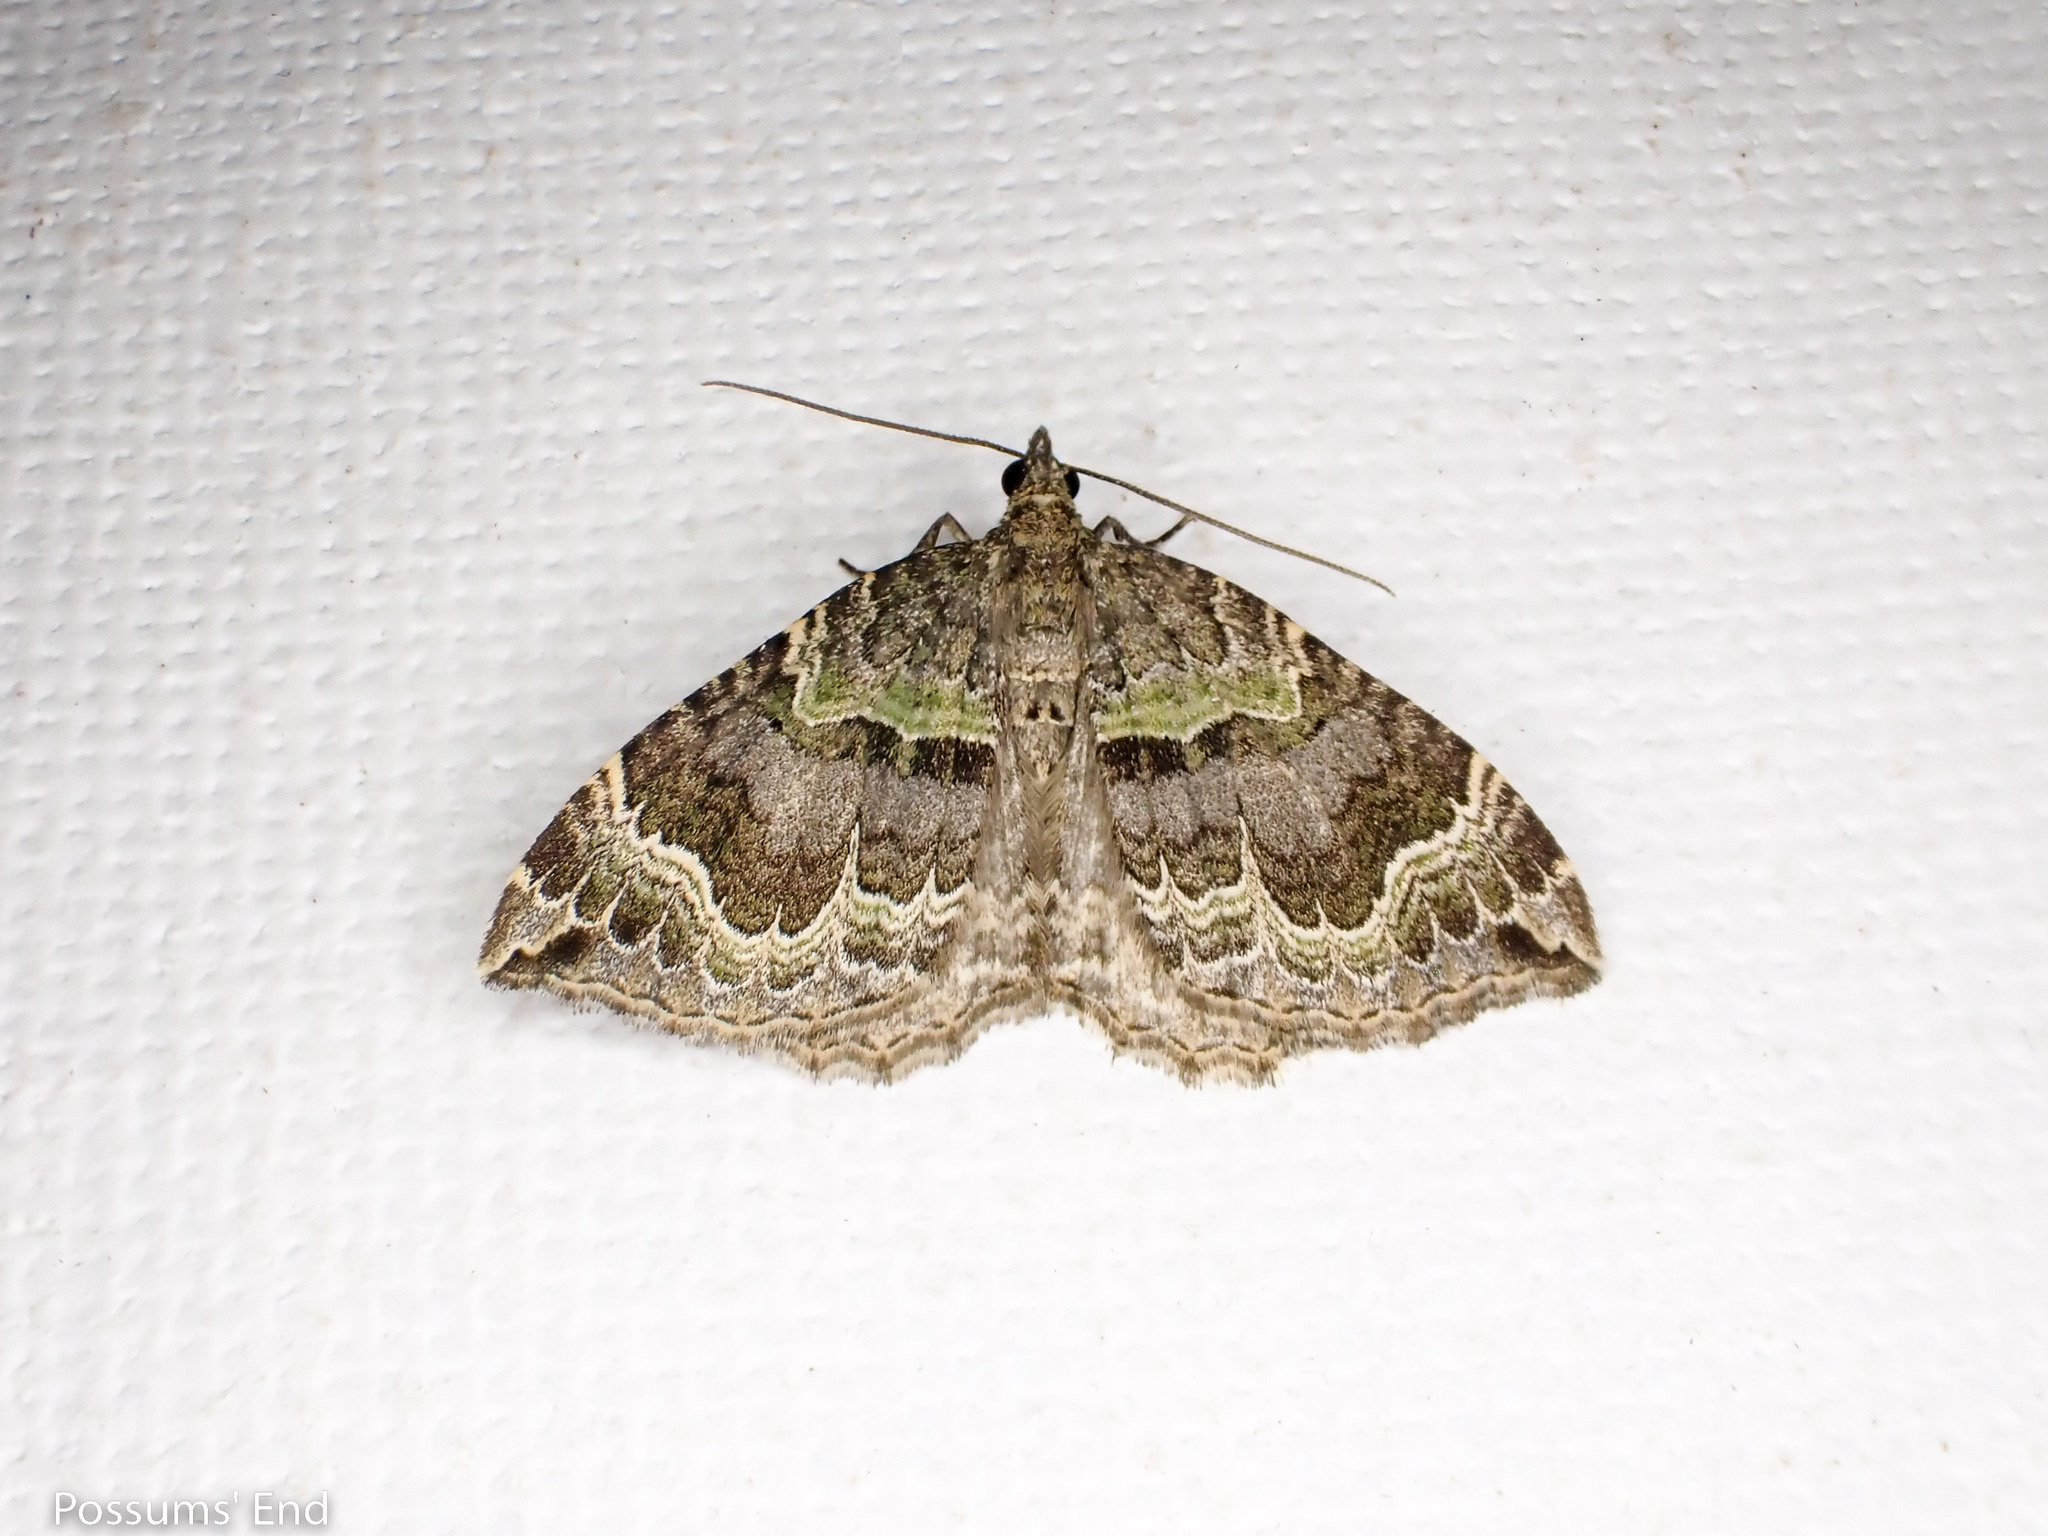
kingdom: Animalia
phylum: Arthropoda
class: Insecta
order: Lepidoptera
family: Geometridae
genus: Hydriomena
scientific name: Hydriomena rixata
